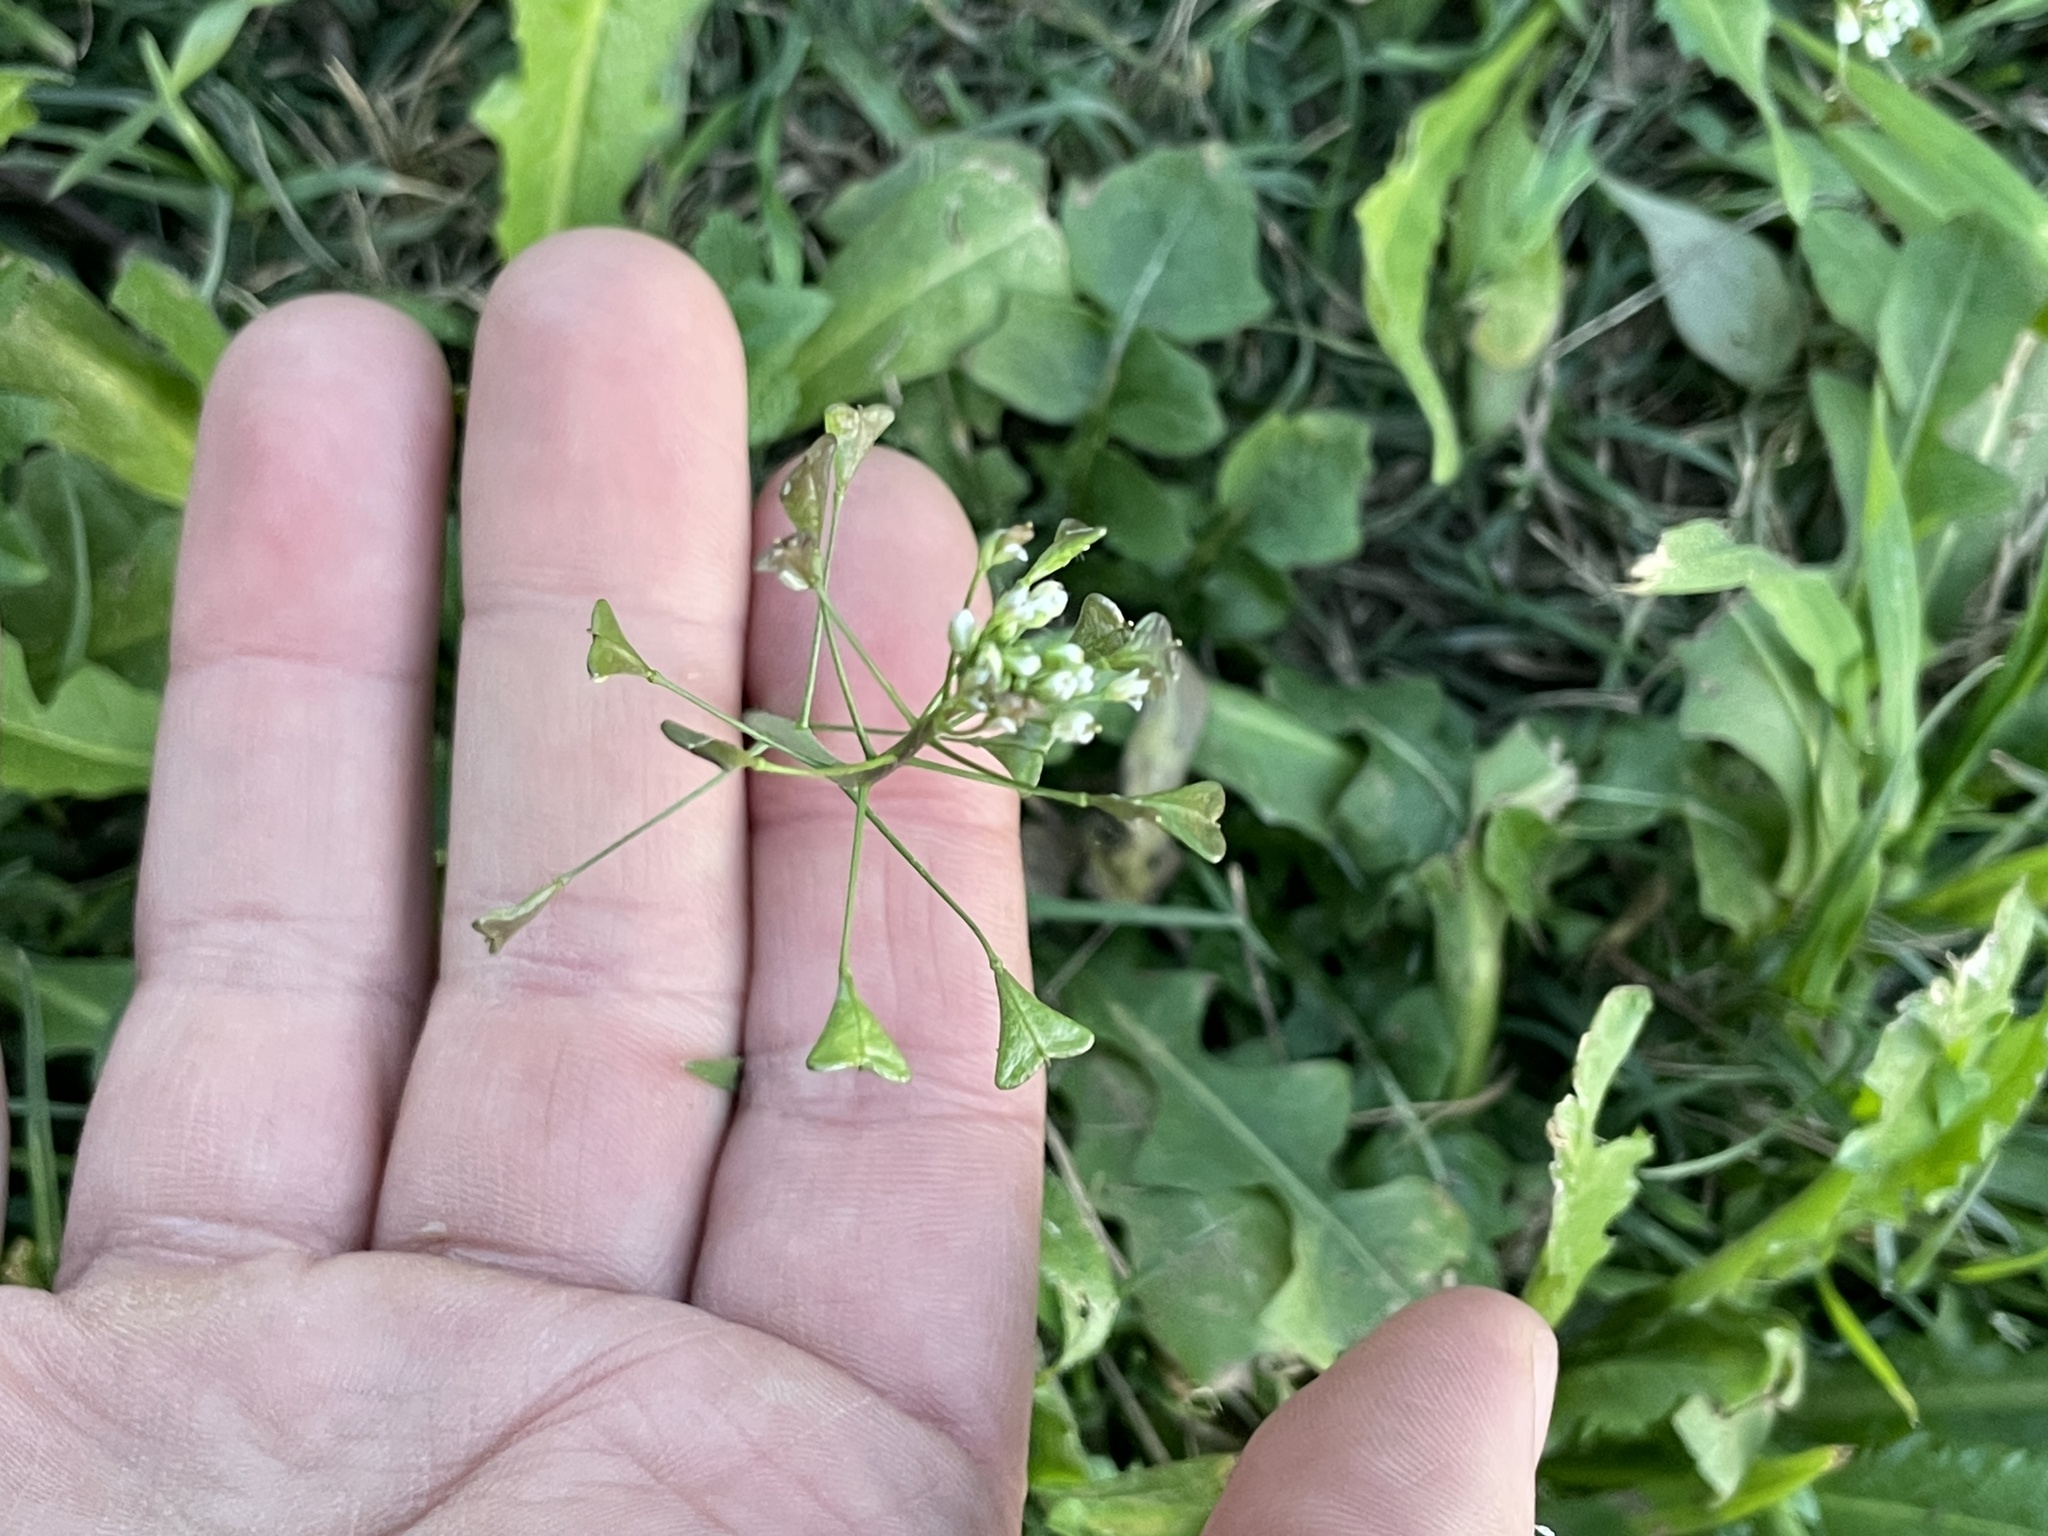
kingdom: Plantae
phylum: Tracheophyta
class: Magnoliopsida
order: Brassicales
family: Brassicaceae
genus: Capsella
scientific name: Capsella bursa-pastoris
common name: Shepherd's purse
